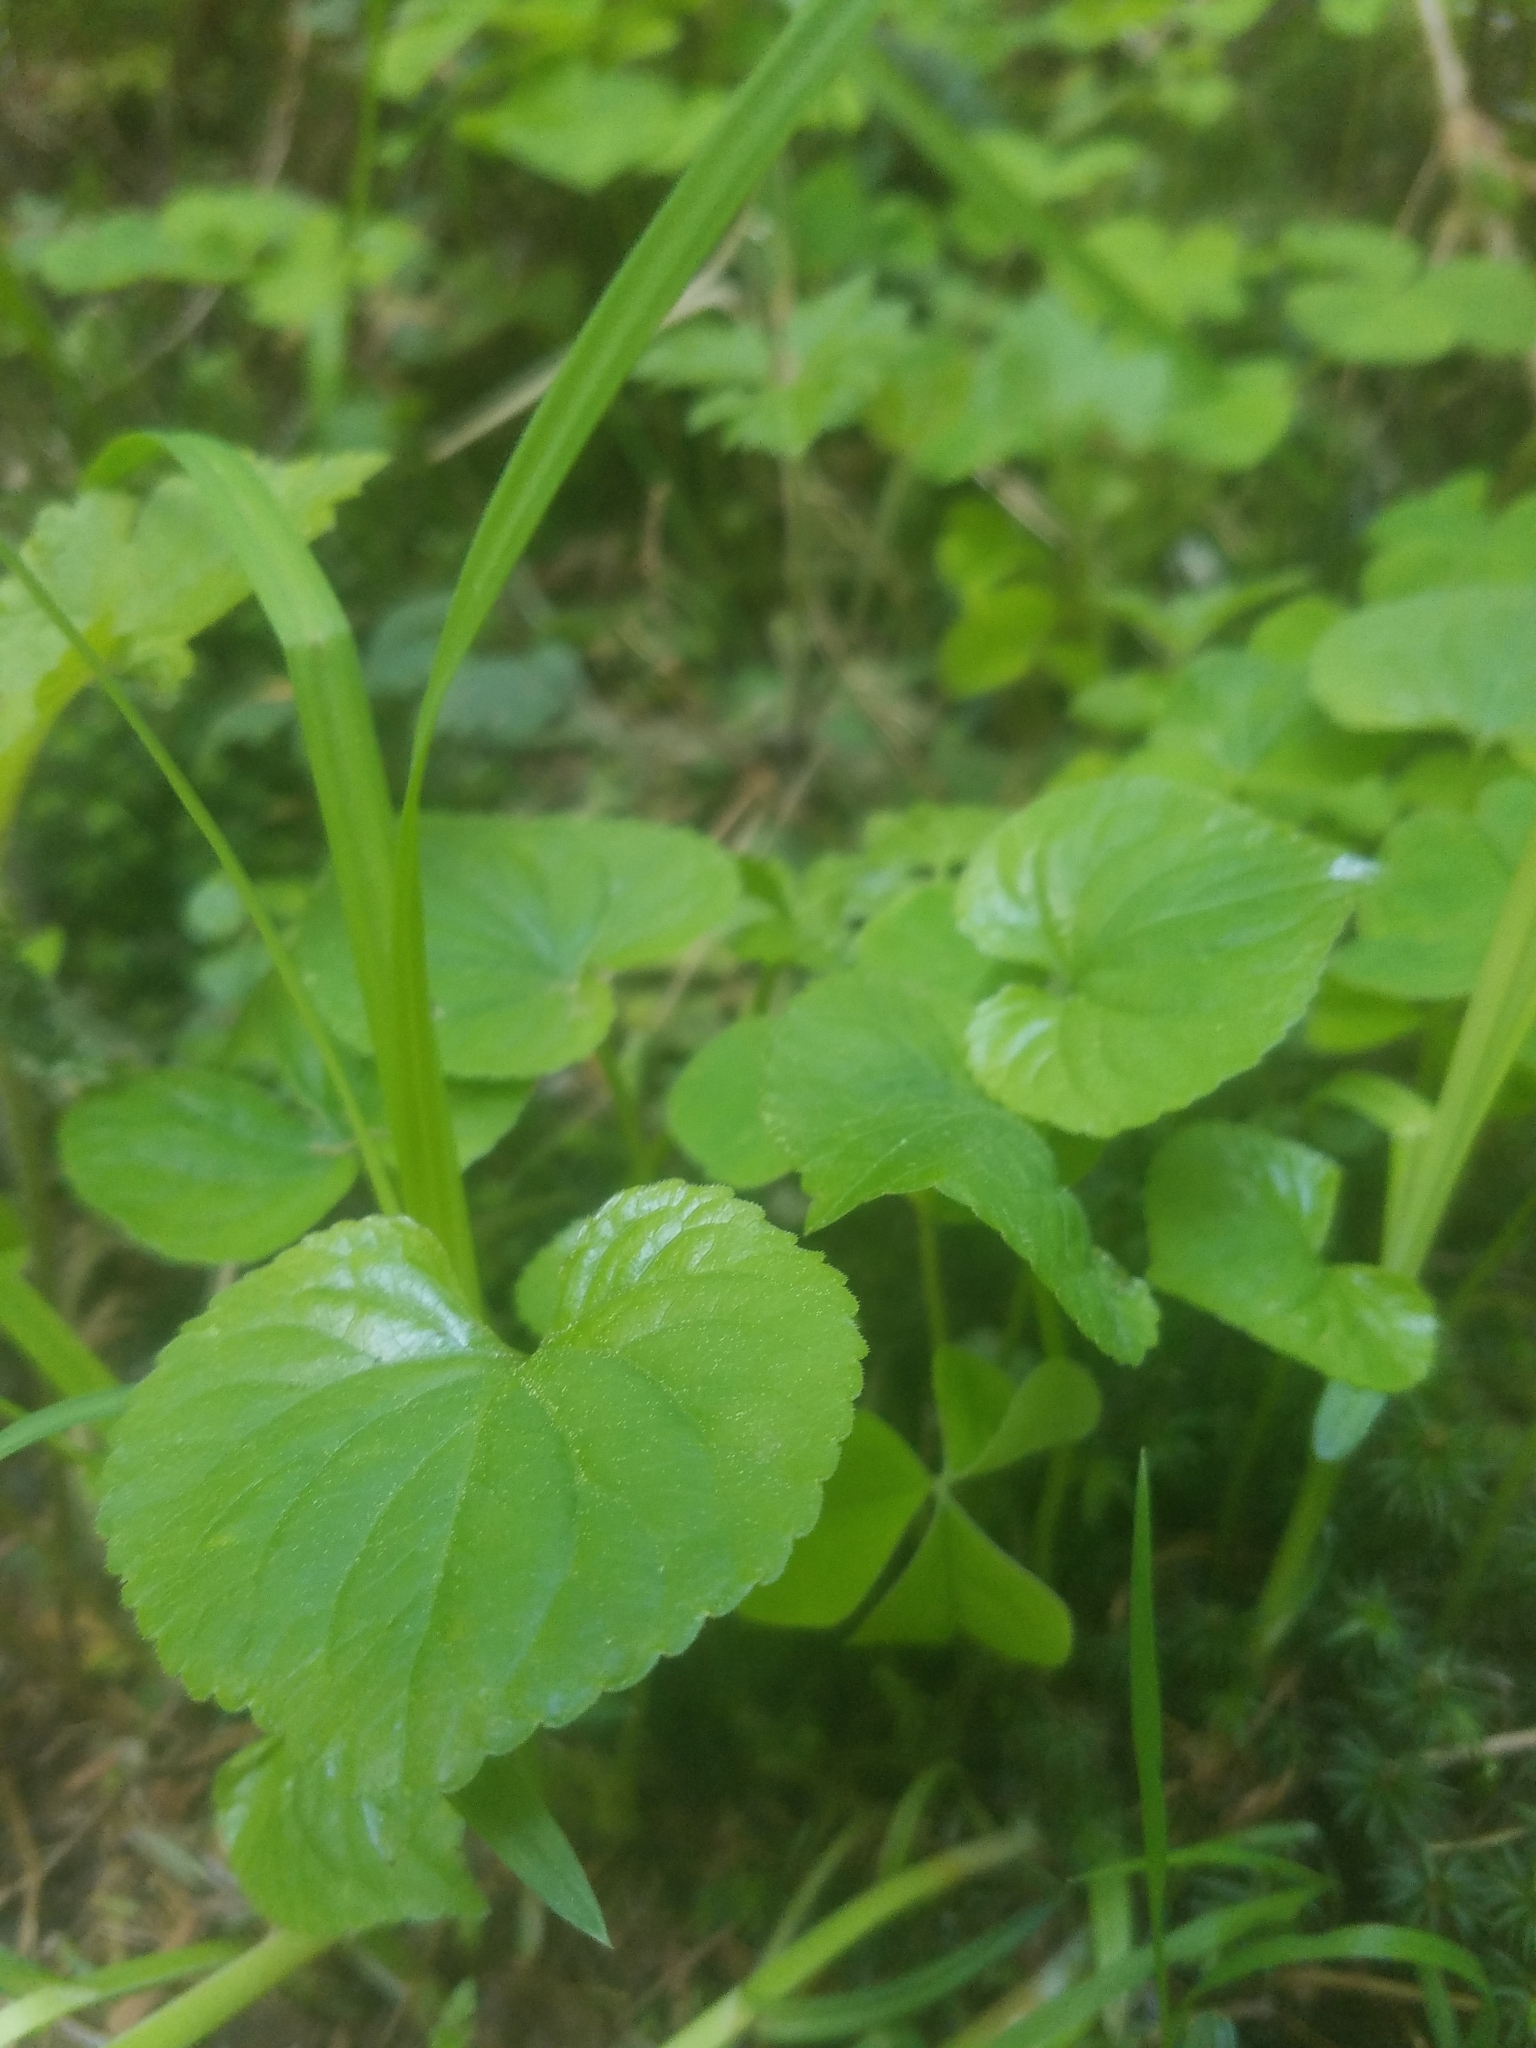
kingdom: Plantae
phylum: Tracheophyta
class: Magnoliopsida
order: Malpighiales
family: Violaceae
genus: Viola
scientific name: Viola glabella
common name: Stream violet
